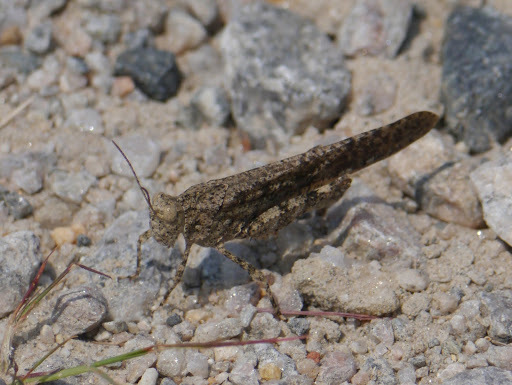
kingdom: Animalia
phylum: Arthropoda
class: Insecta
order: Orthoptera
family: Acrididae
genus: Dissosteira
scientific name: Dissosteira carolina
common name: Carolina grasshopper
